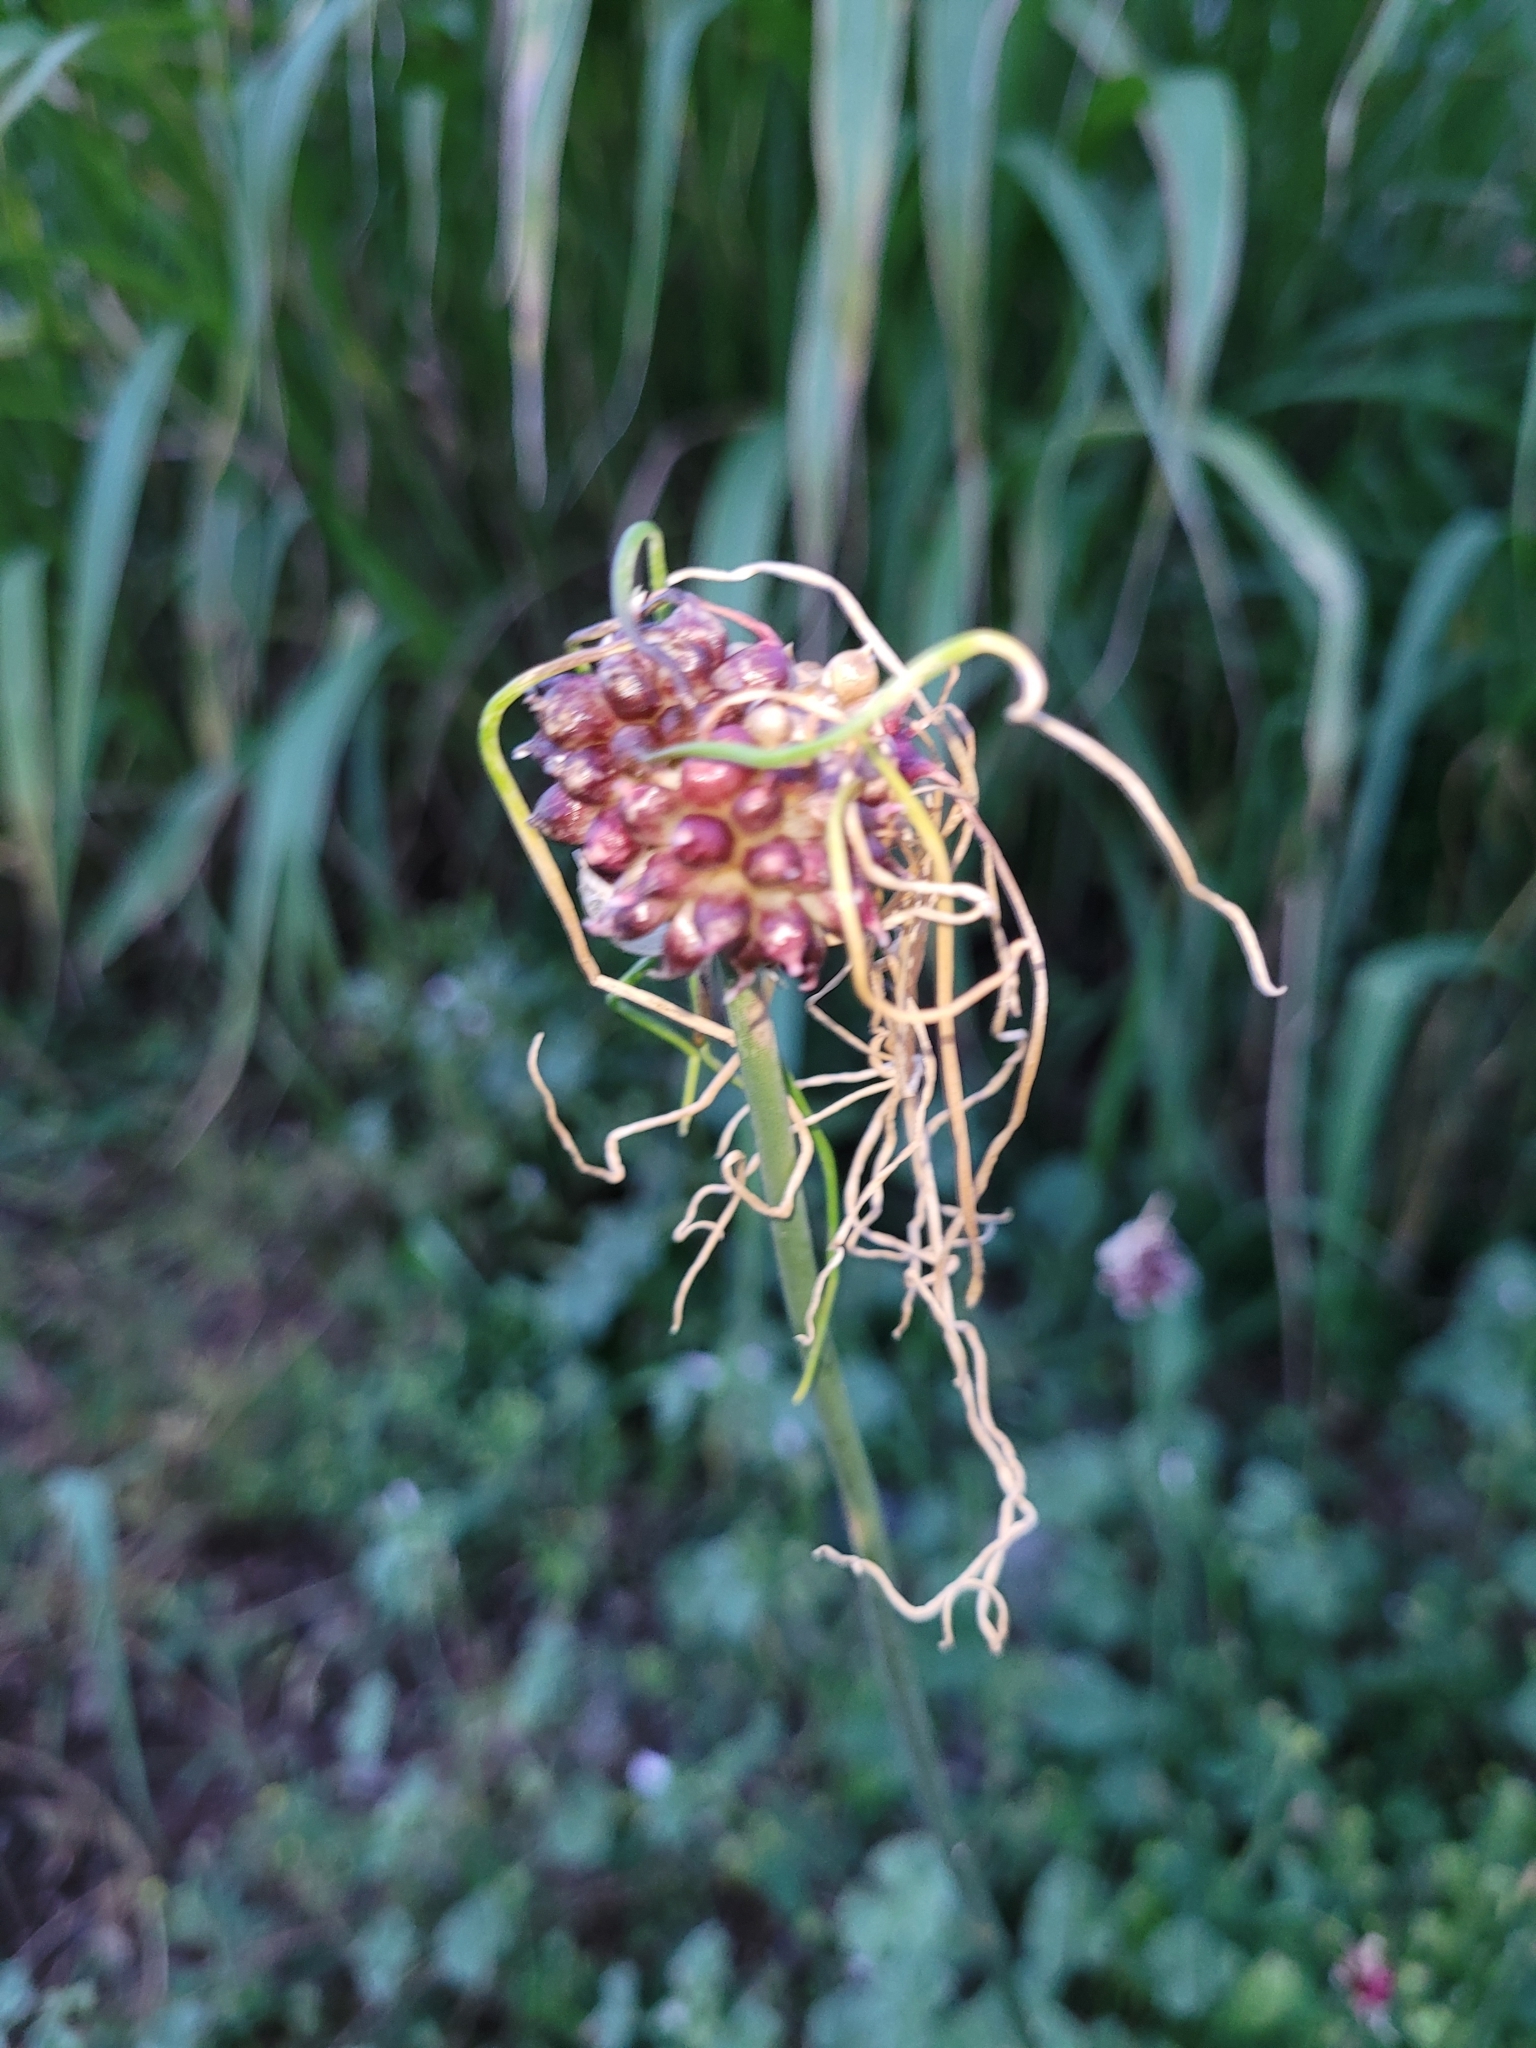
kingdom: Plantae
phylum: Tracheophyta
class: Liliopsida
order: Asparagales
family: Amaryllidaceae
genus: Allium
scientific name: Allium vineale
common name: Crow garlic
